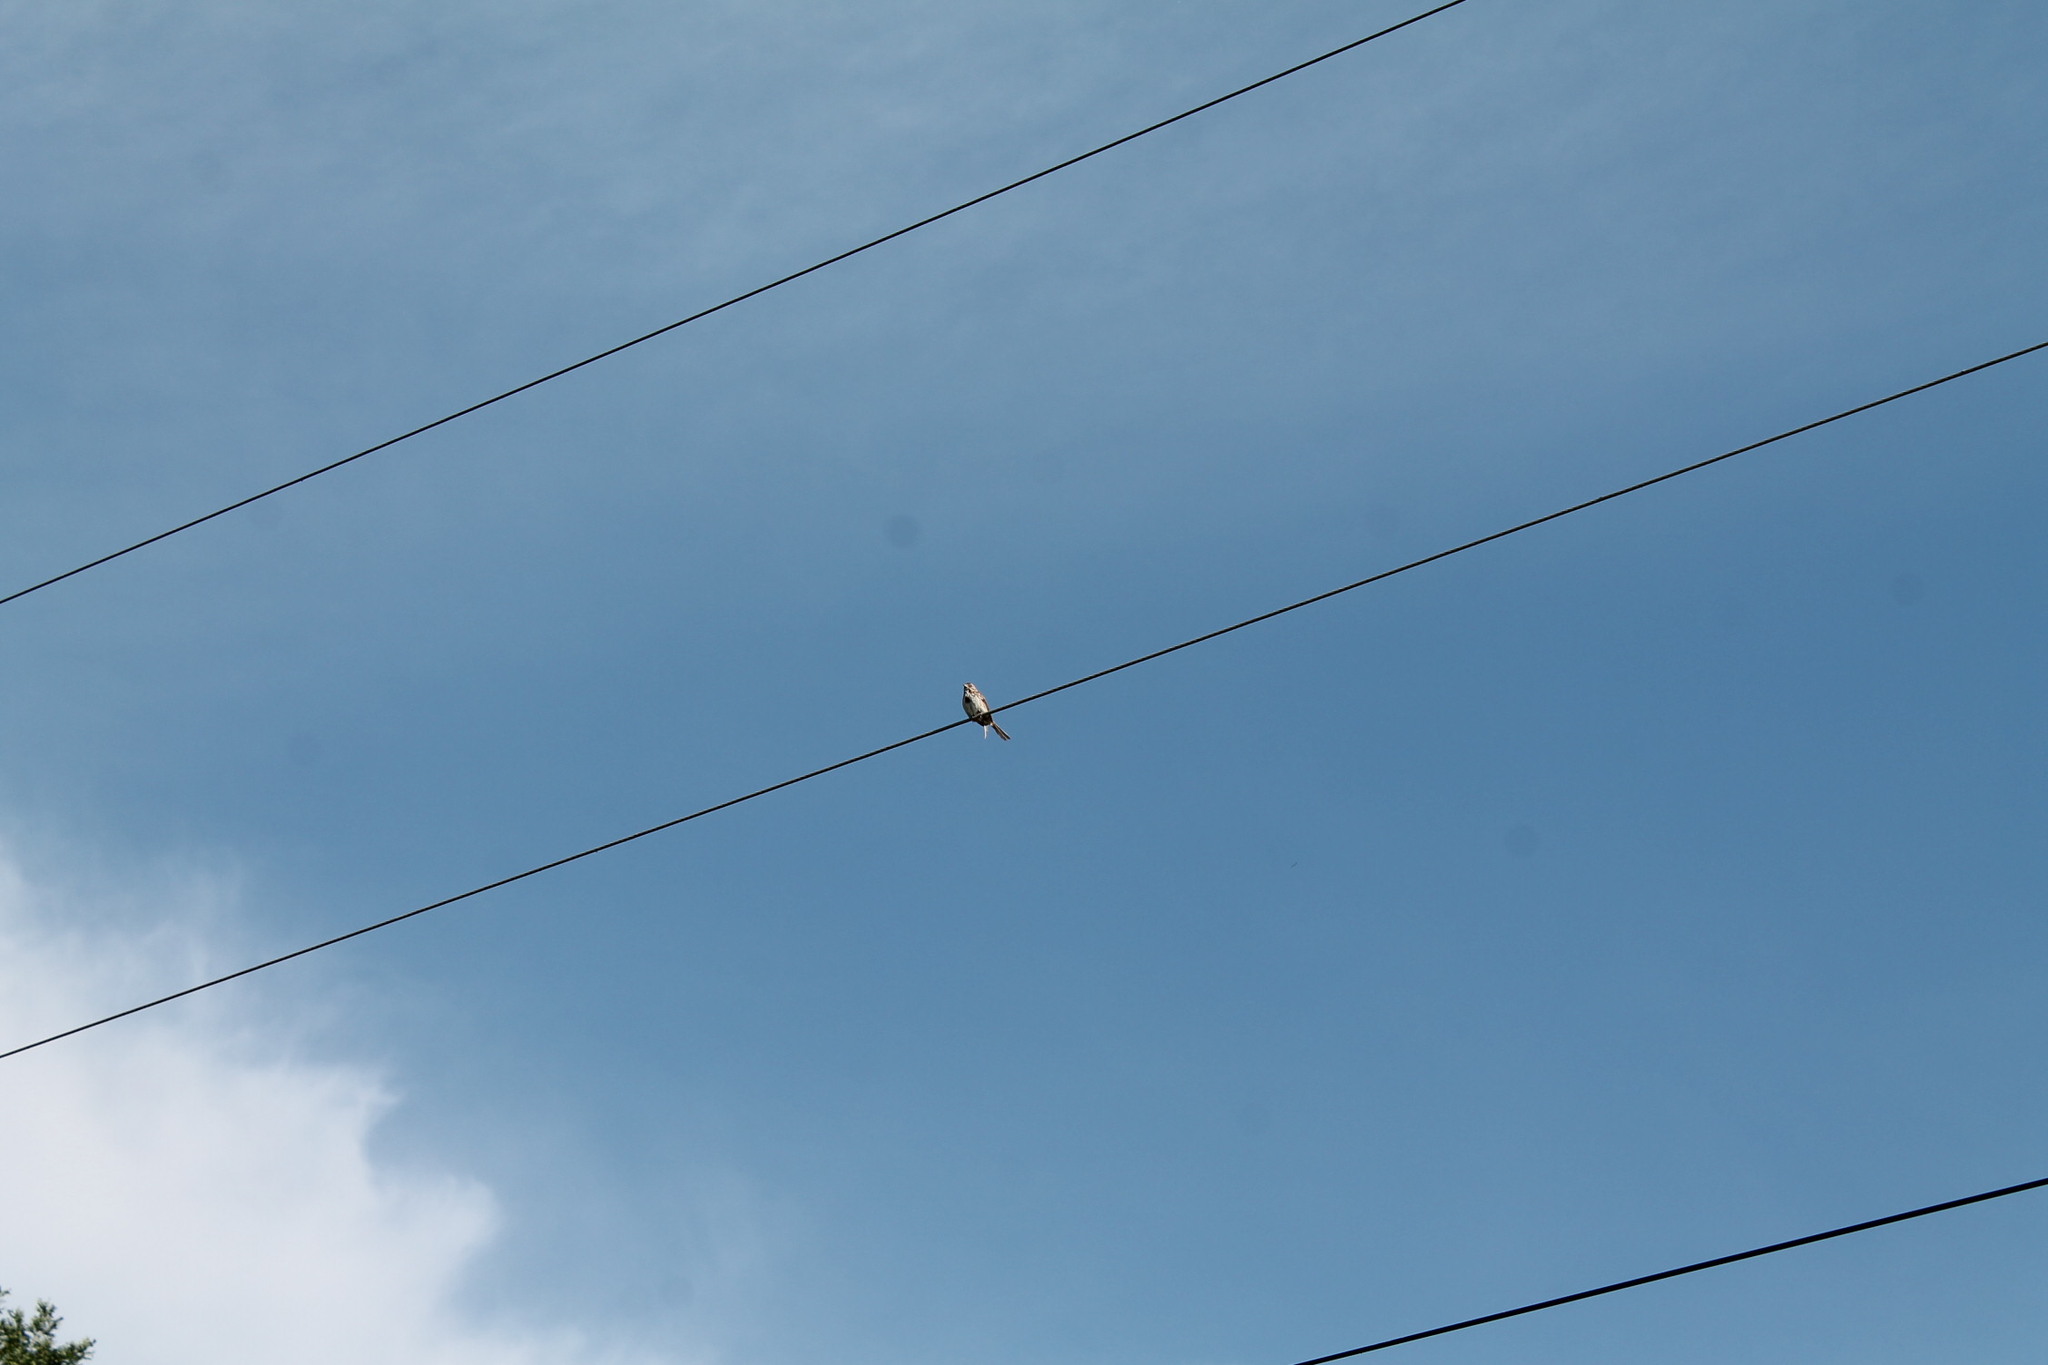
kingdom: Animalia
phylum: Chordata
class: Aves
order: Passeriformes
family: Passerellidae
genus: Melospiza
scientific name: Melospiza melodia
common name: Song sparrow
